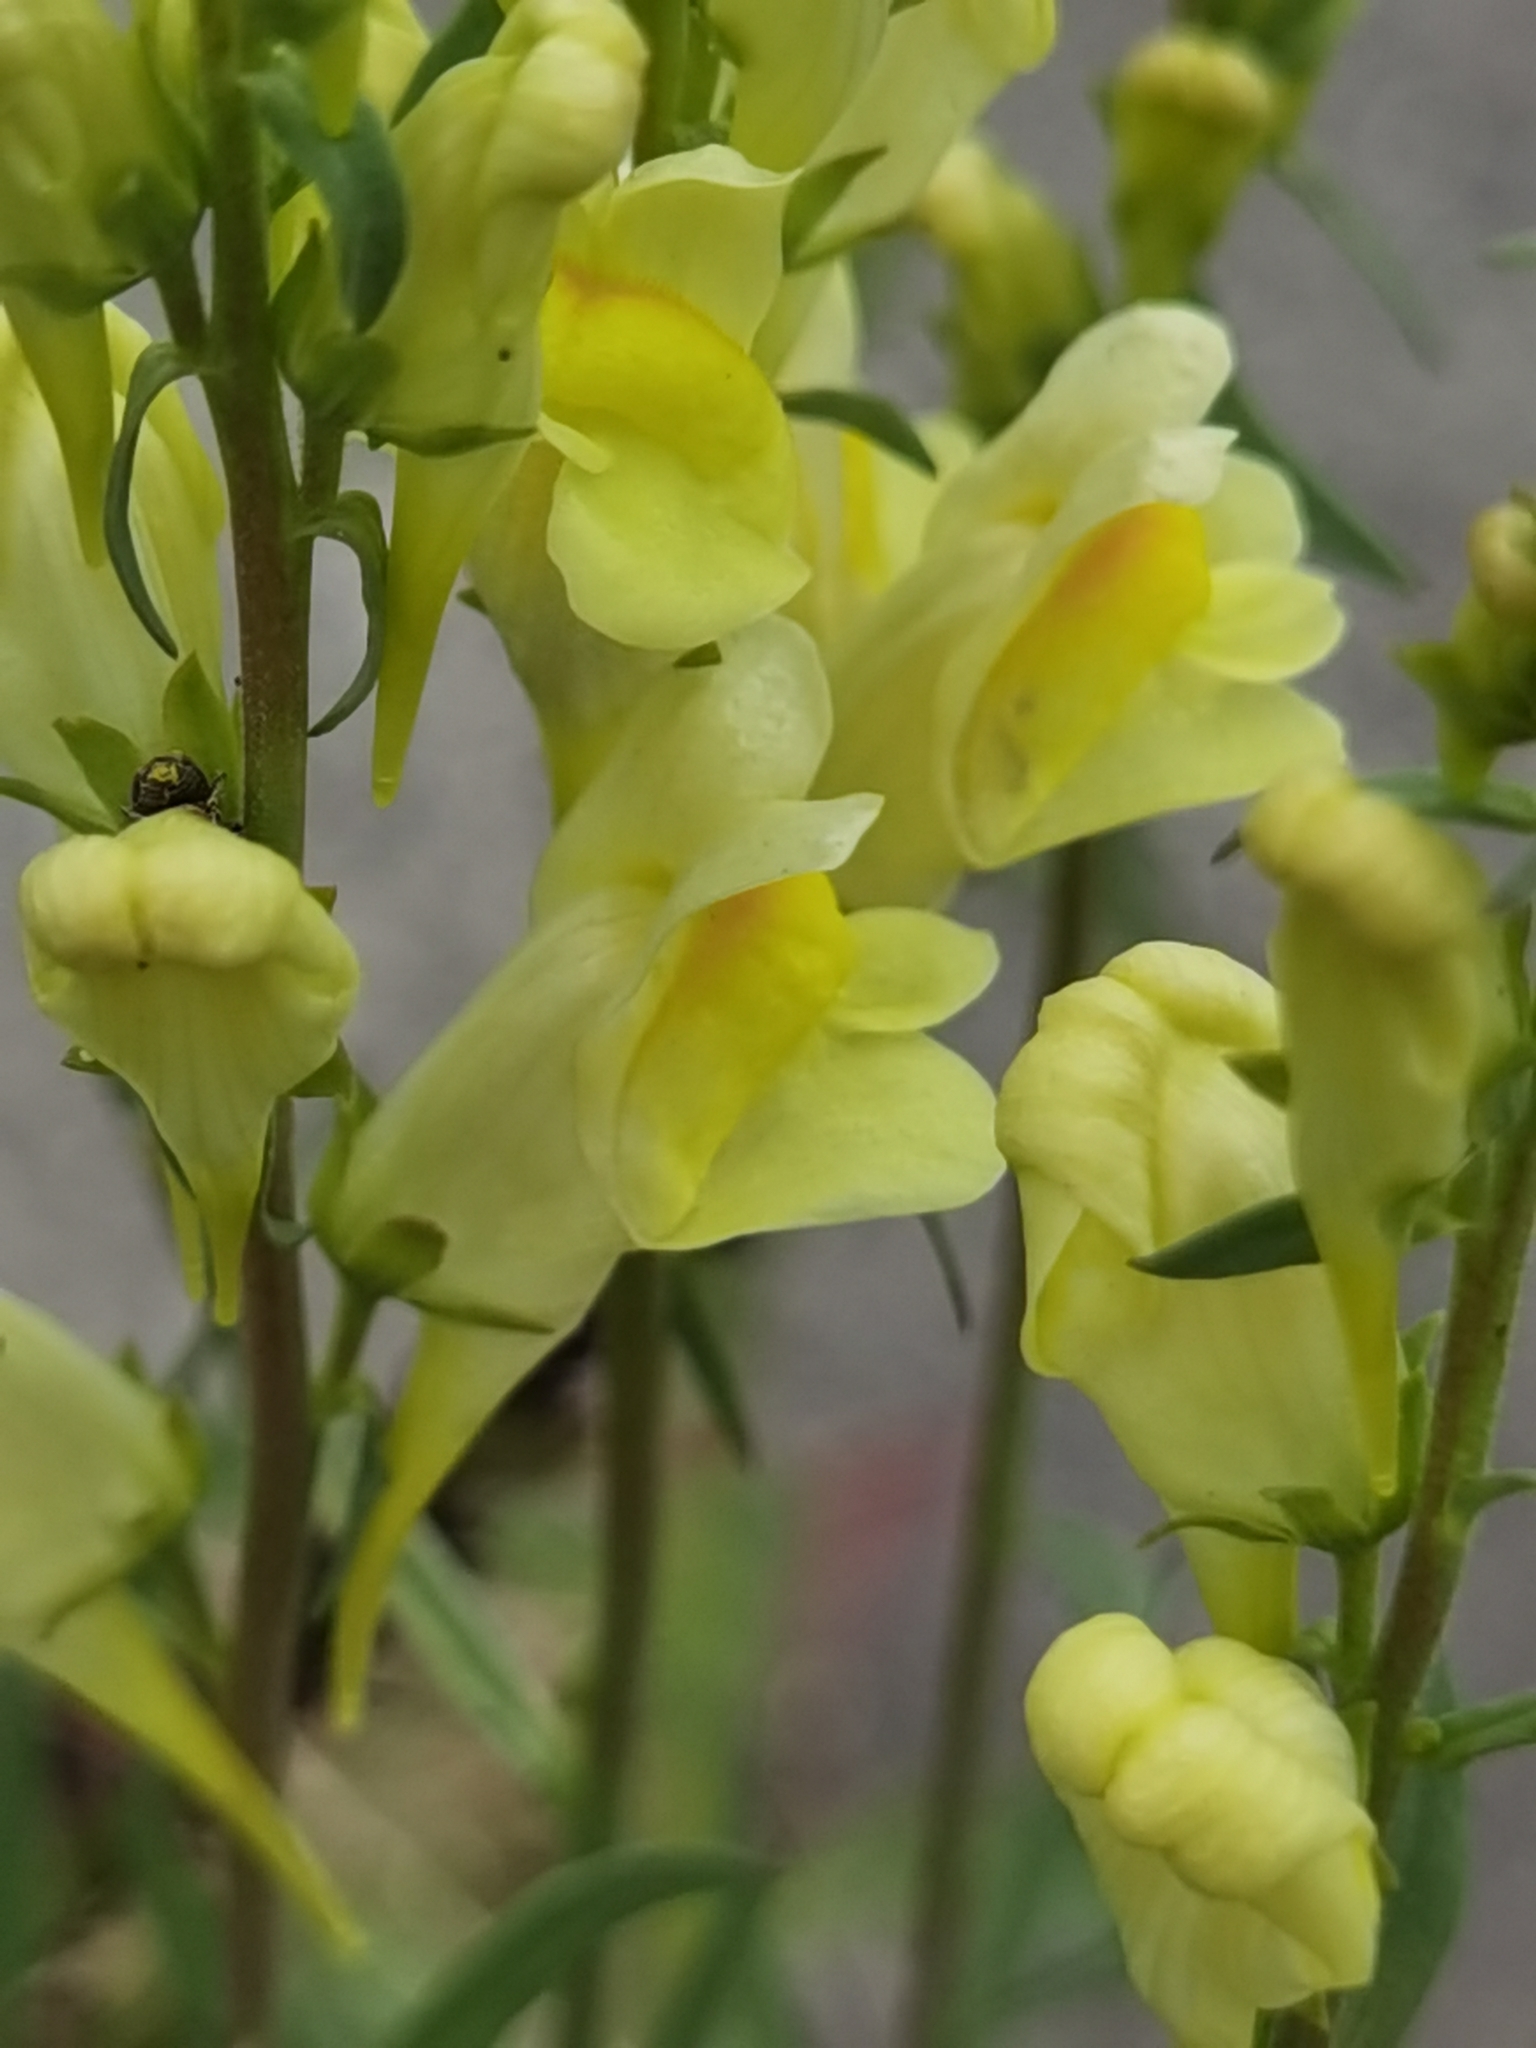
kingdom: Plantae
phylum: Tracheophyta
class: Magnoliopsida
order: Lamiales
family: Plantaginaceae
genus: Linaria
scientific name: Linaria vulgaris
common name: Butter and eggs
